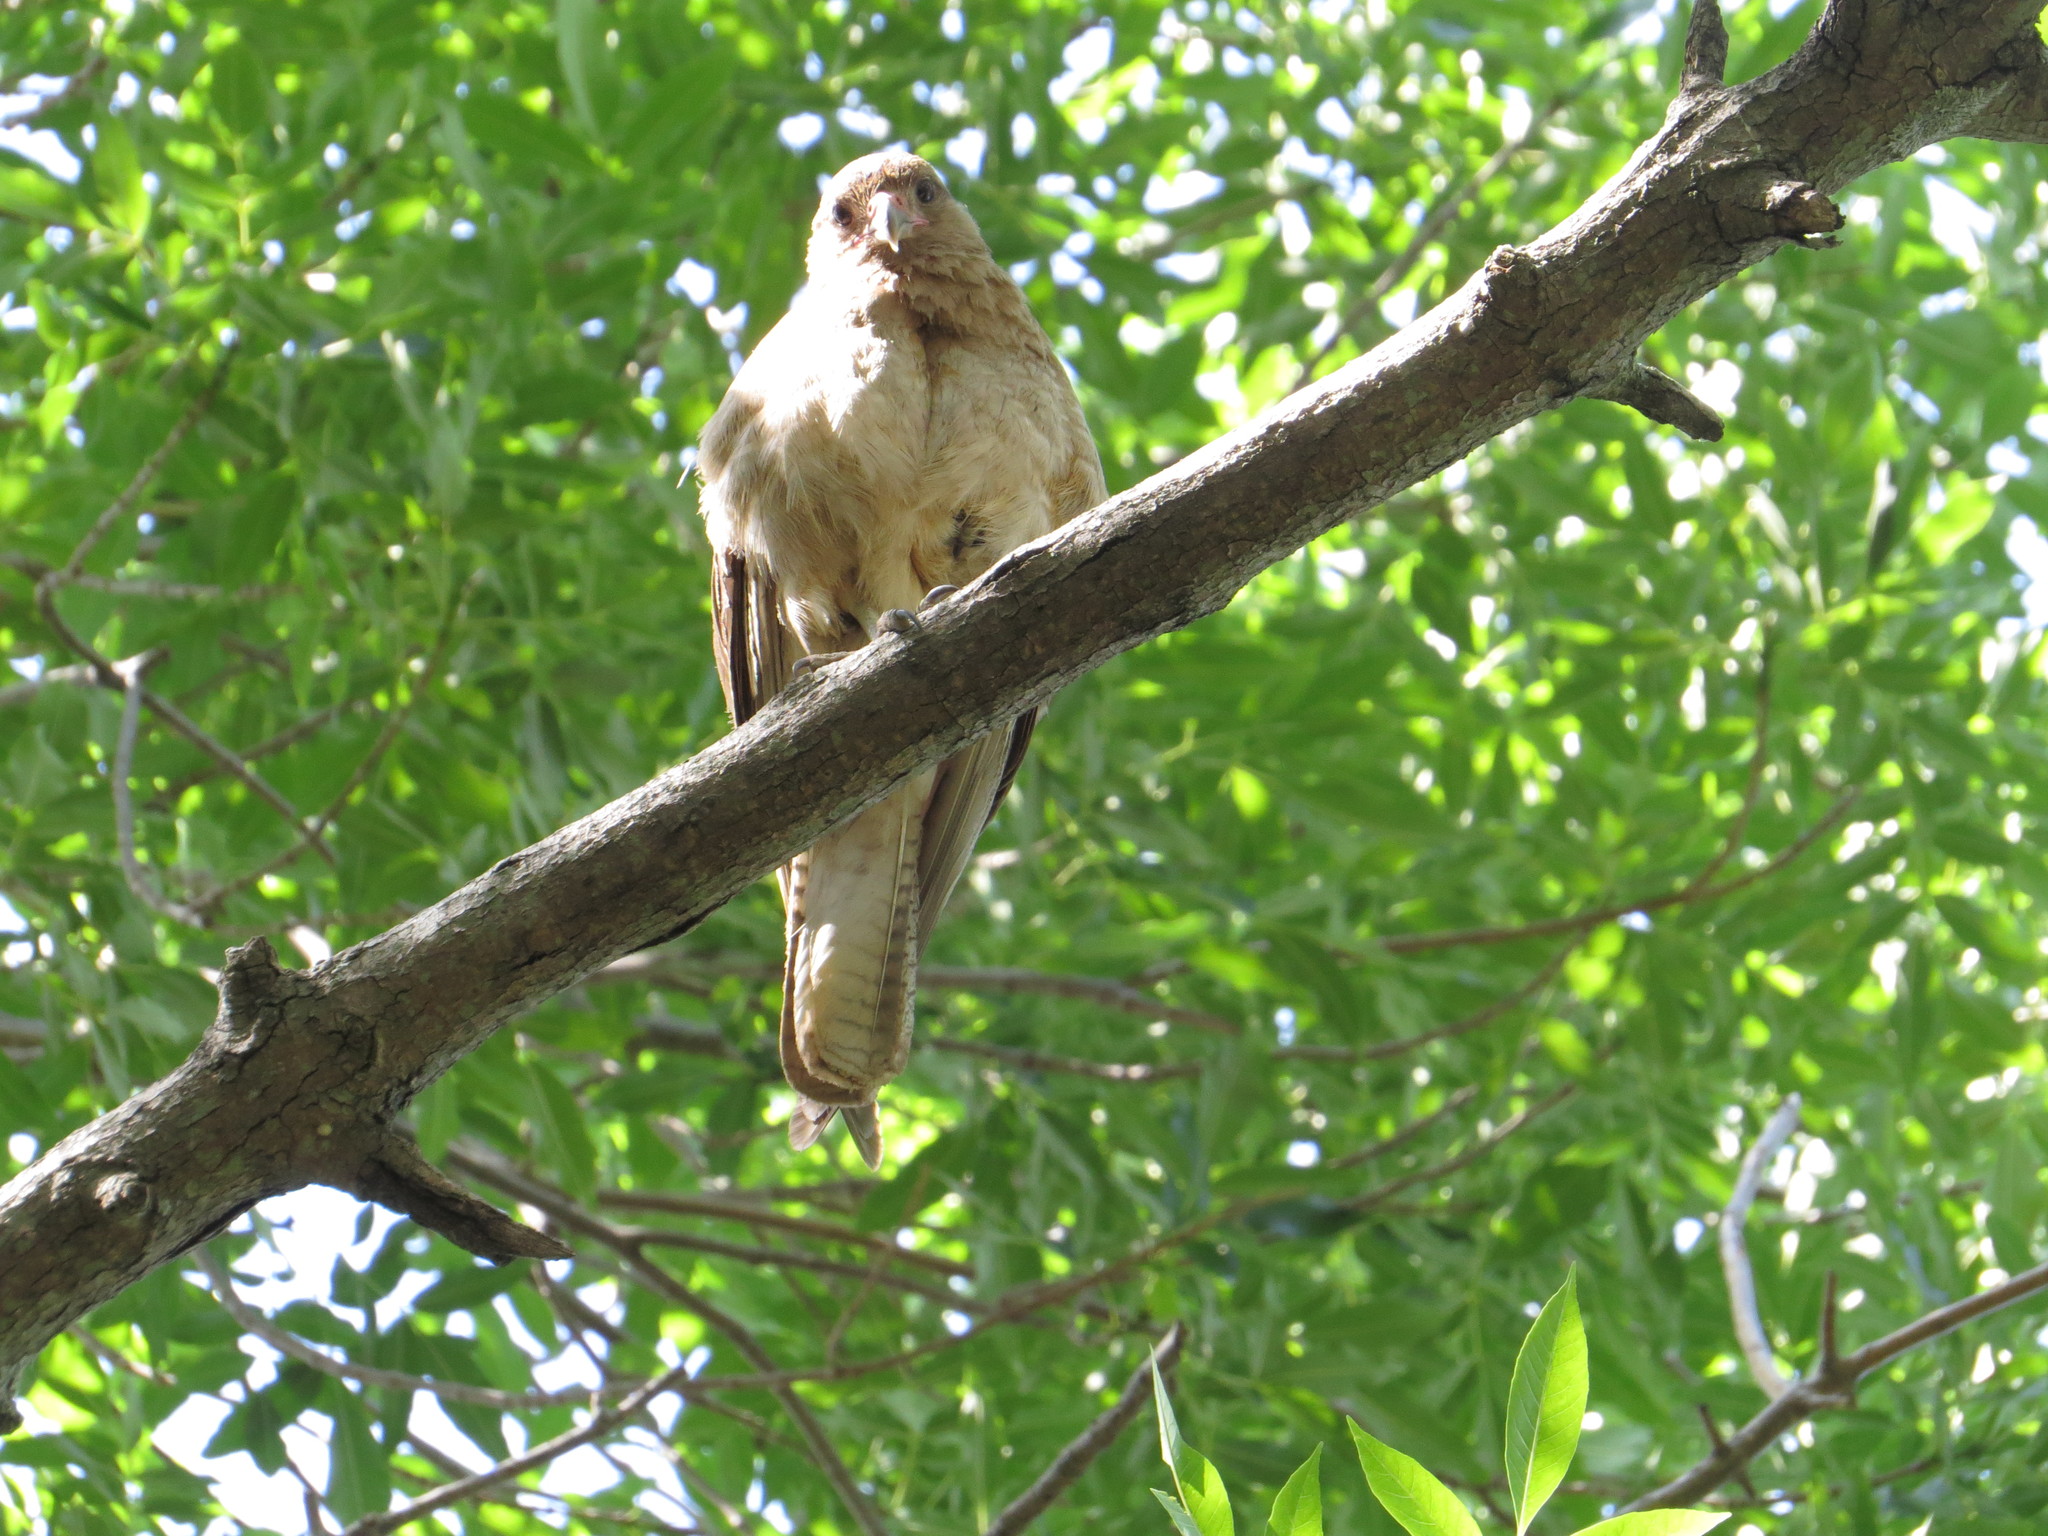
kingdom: Animalia
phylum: Chordata
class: Aves
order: Falconiformes
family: Falconidae
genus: Daptrius
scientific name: Daptrius
